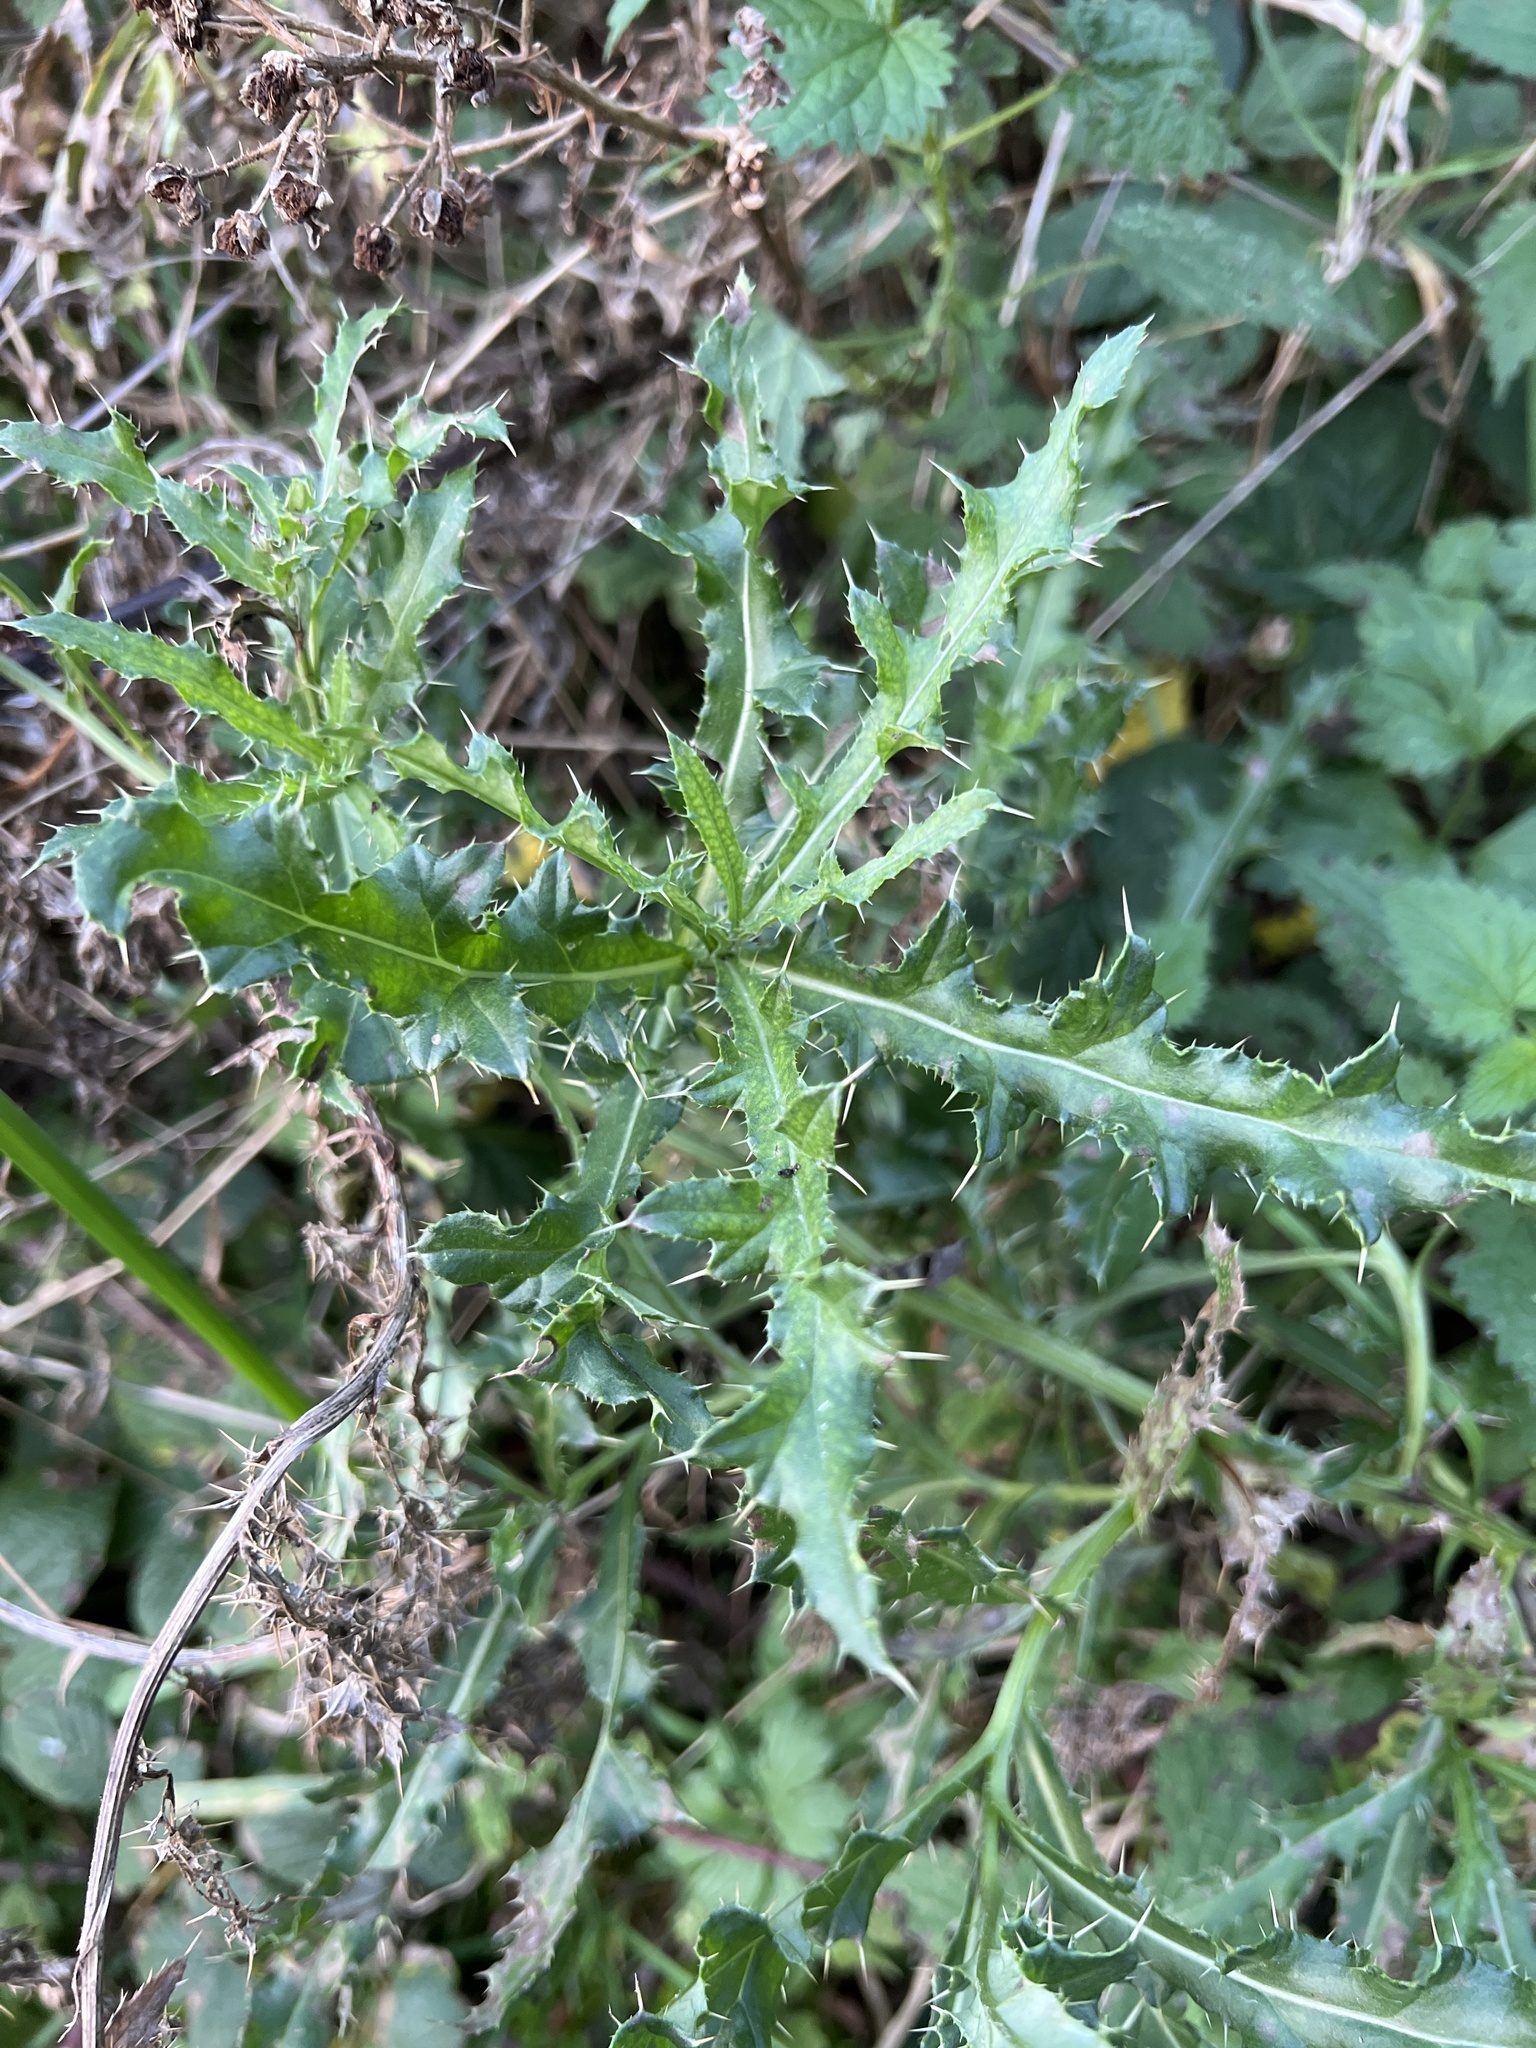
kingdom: Plantae
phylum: Tracheophyta
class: Magnoliopsida
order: Asterales
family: Asteraceae
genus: Cirsium
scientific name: Cirsium arvense
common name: Creeping thistle
